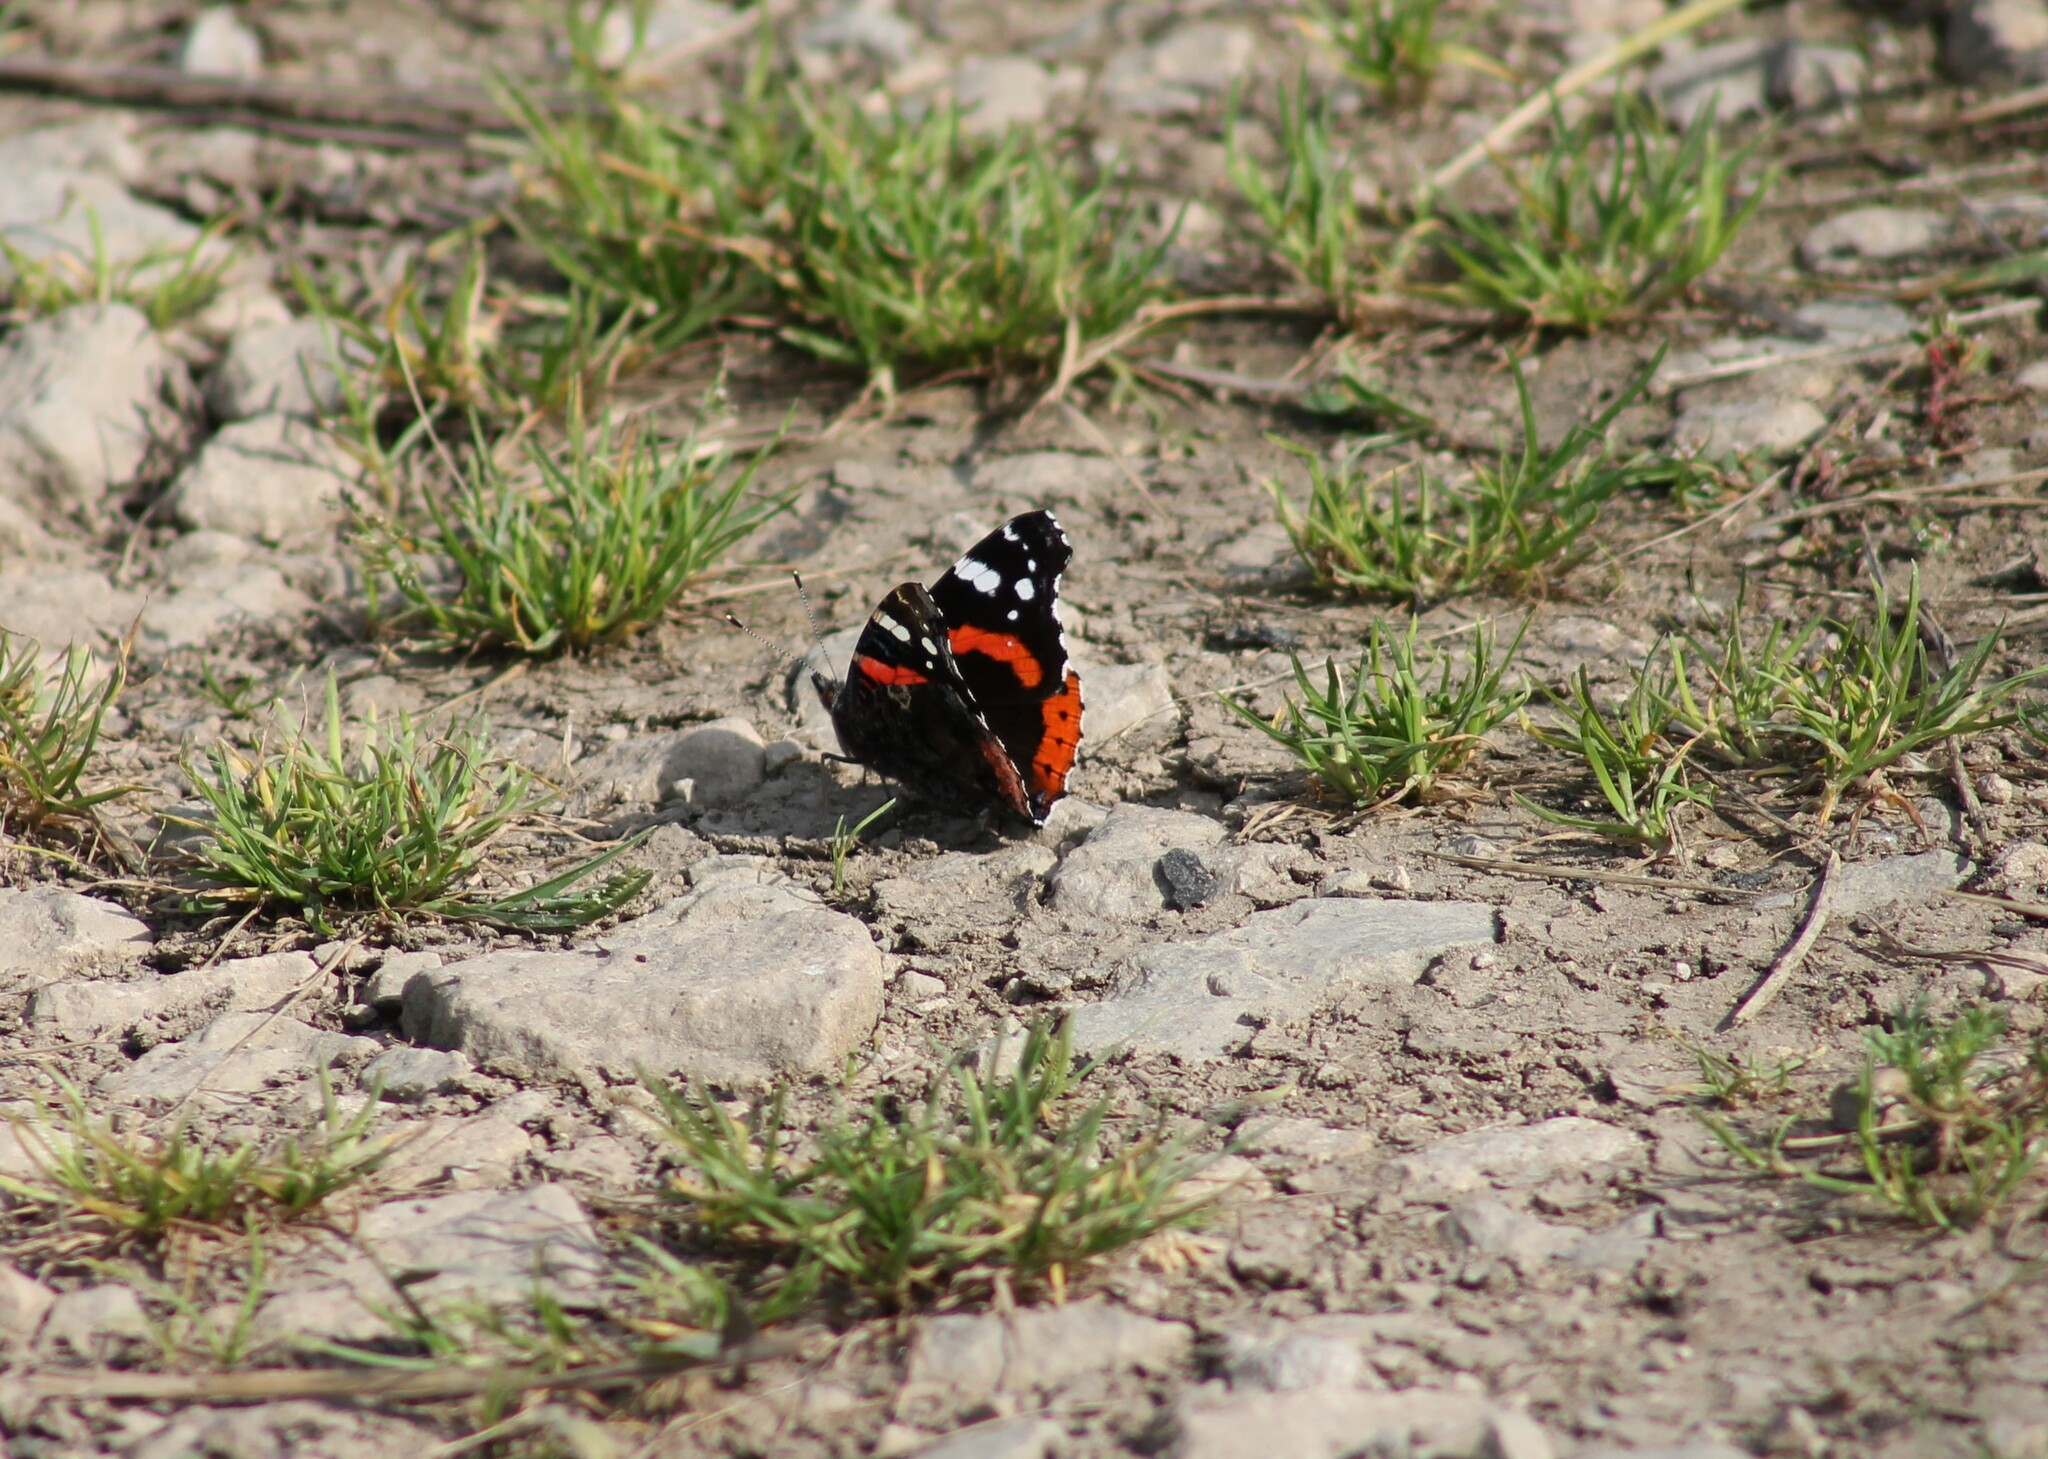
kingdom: Animalia
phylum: Arthropoda
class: Insecta
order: Lepidoptera
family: Nymphalidae
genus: Vanessa
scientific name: Vanessa atalanta
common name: Red admiral
